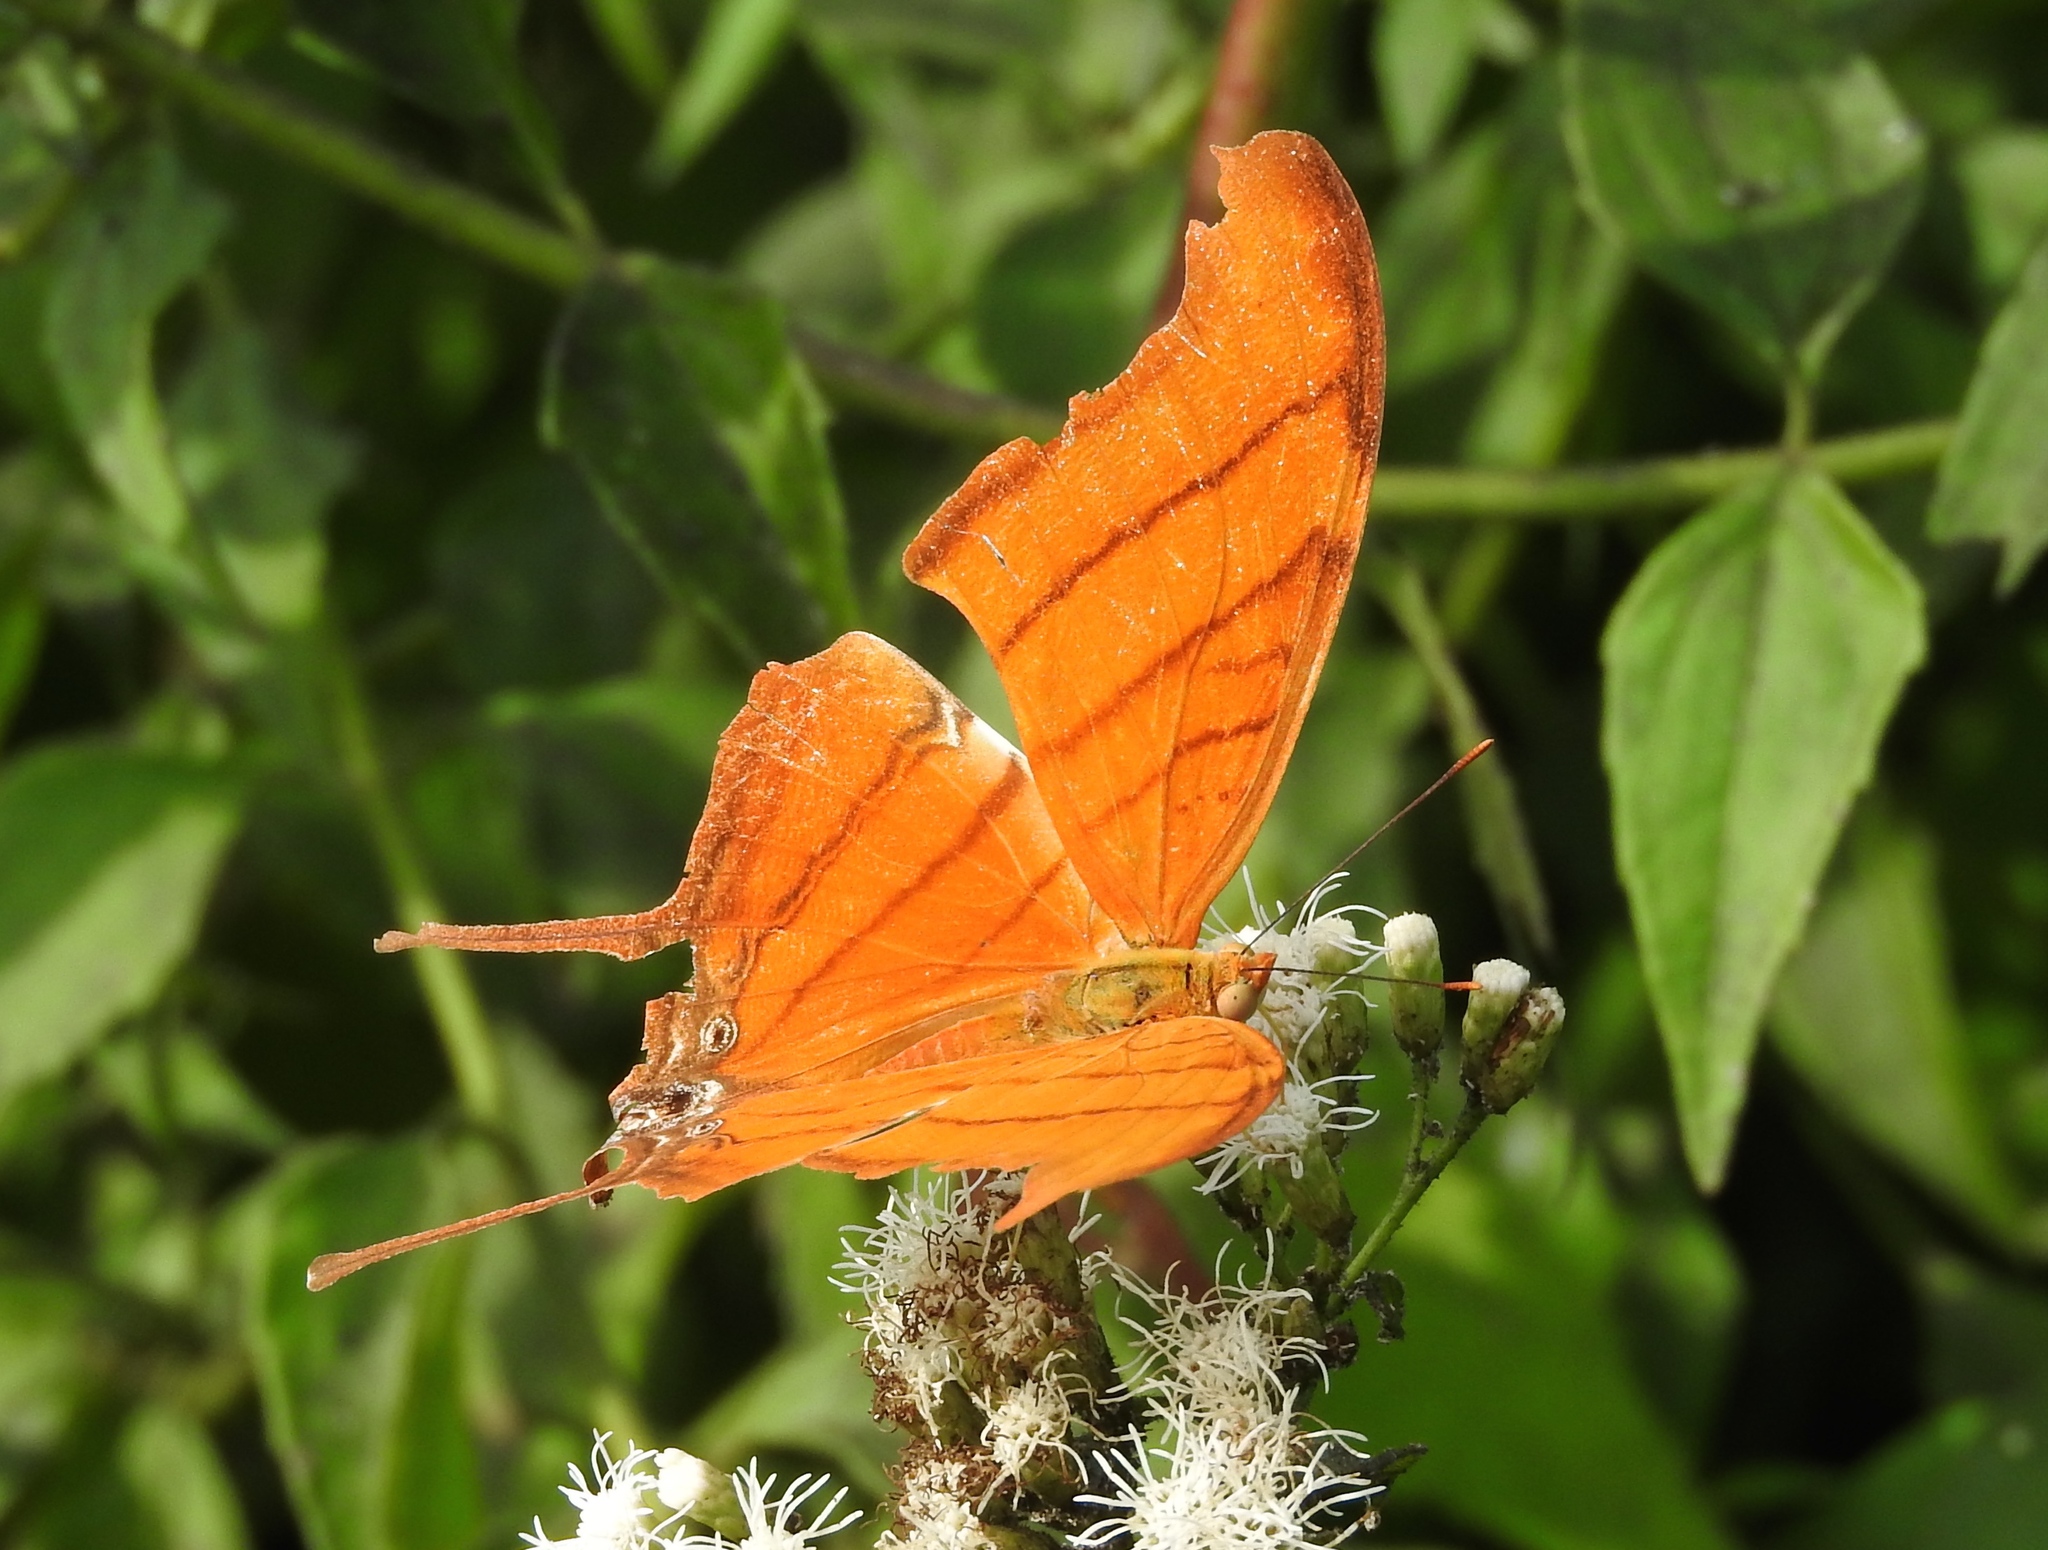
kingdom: Animalia
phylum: Arthropoda
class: Insecta
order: Lepidoptera
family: Nymphalidae
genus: Marpesia
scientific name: Marpesia petreus
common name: Red dagger wing
